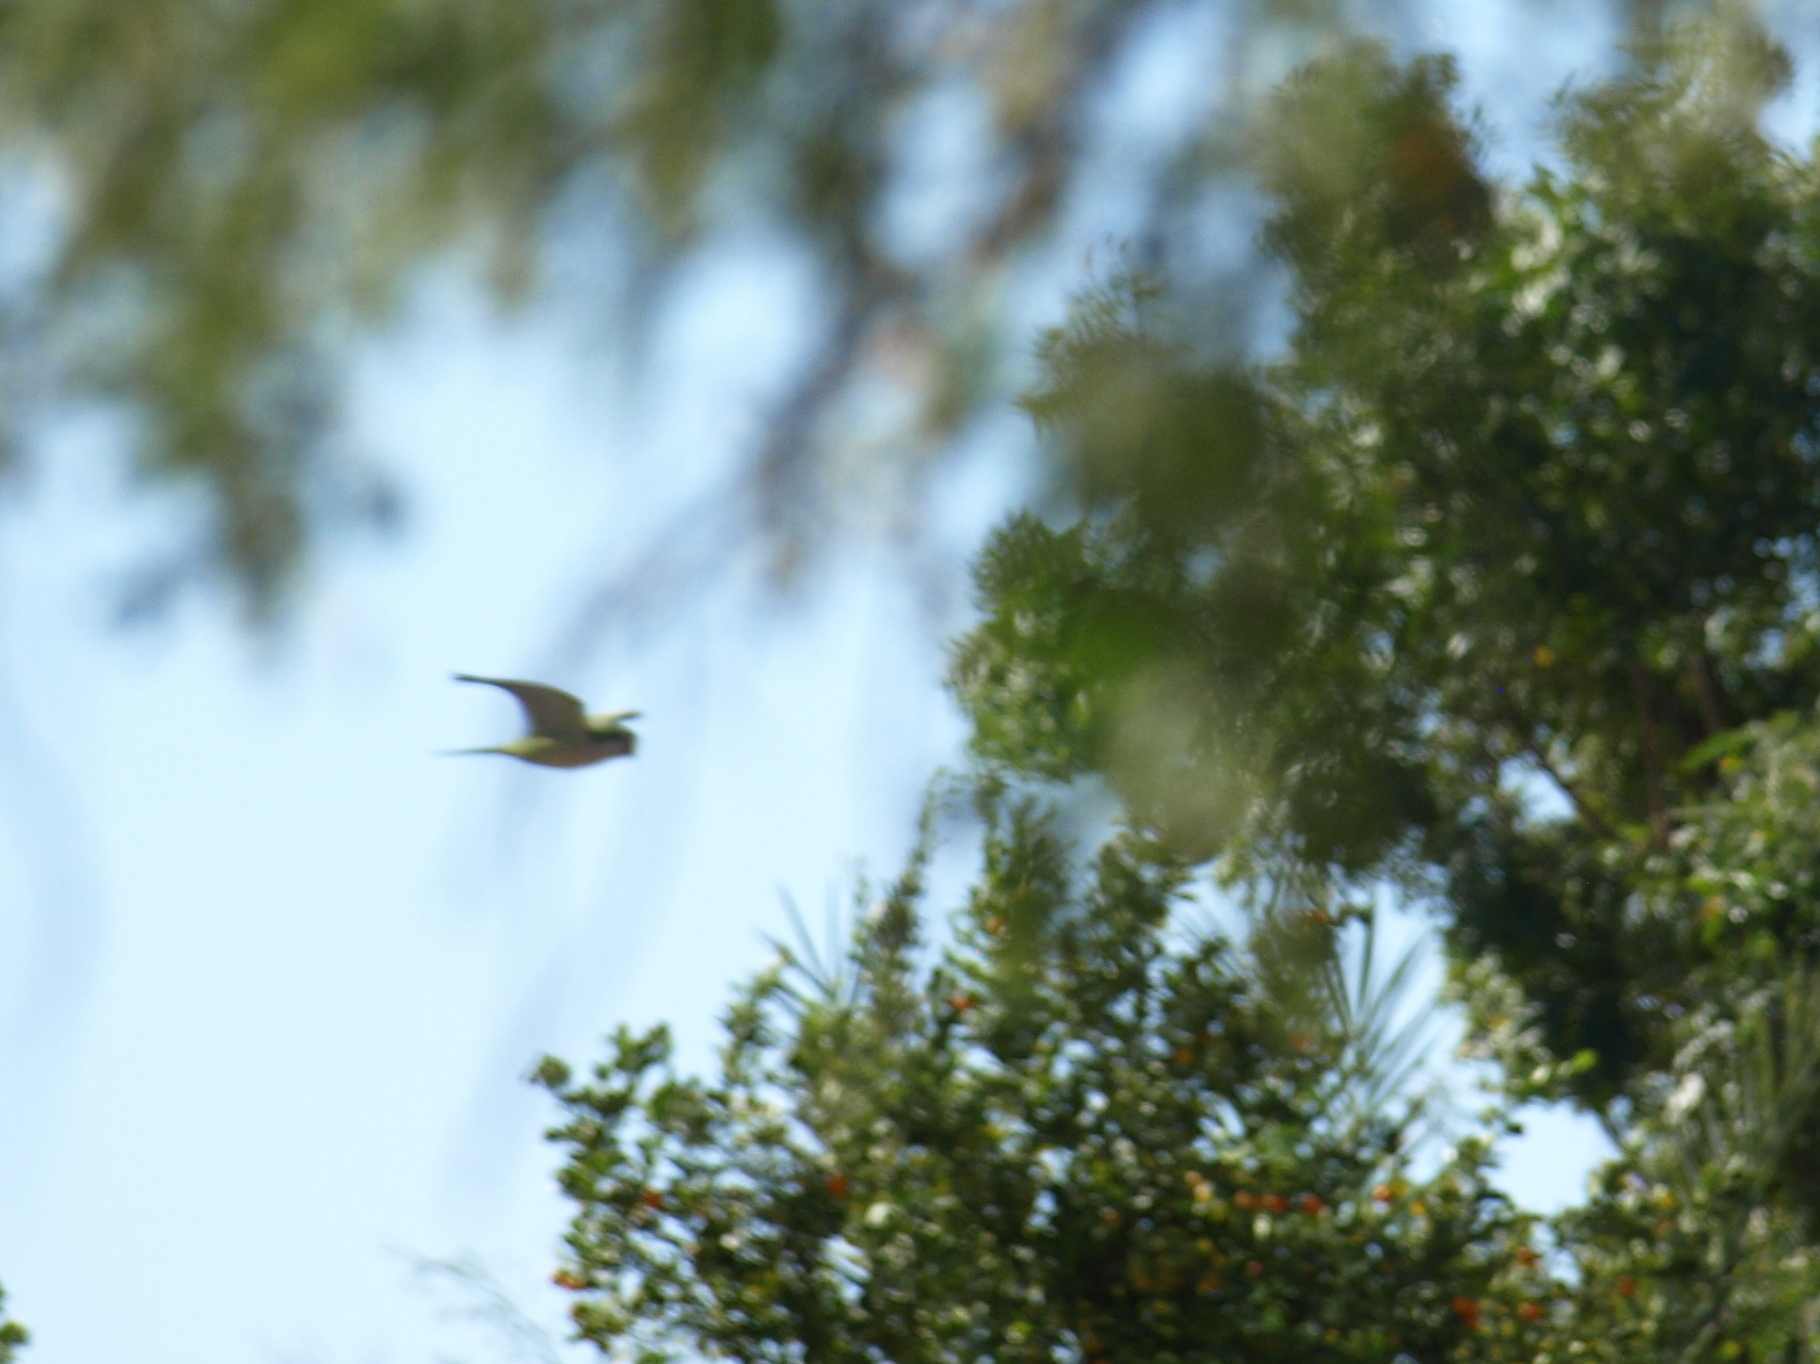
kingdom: Animalia
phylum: Chordata
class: Aves
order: Psittaciformes
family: Psittacidae
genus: Myiopsitta
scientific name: Myiopsitta monachus
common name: Monk parakeet
